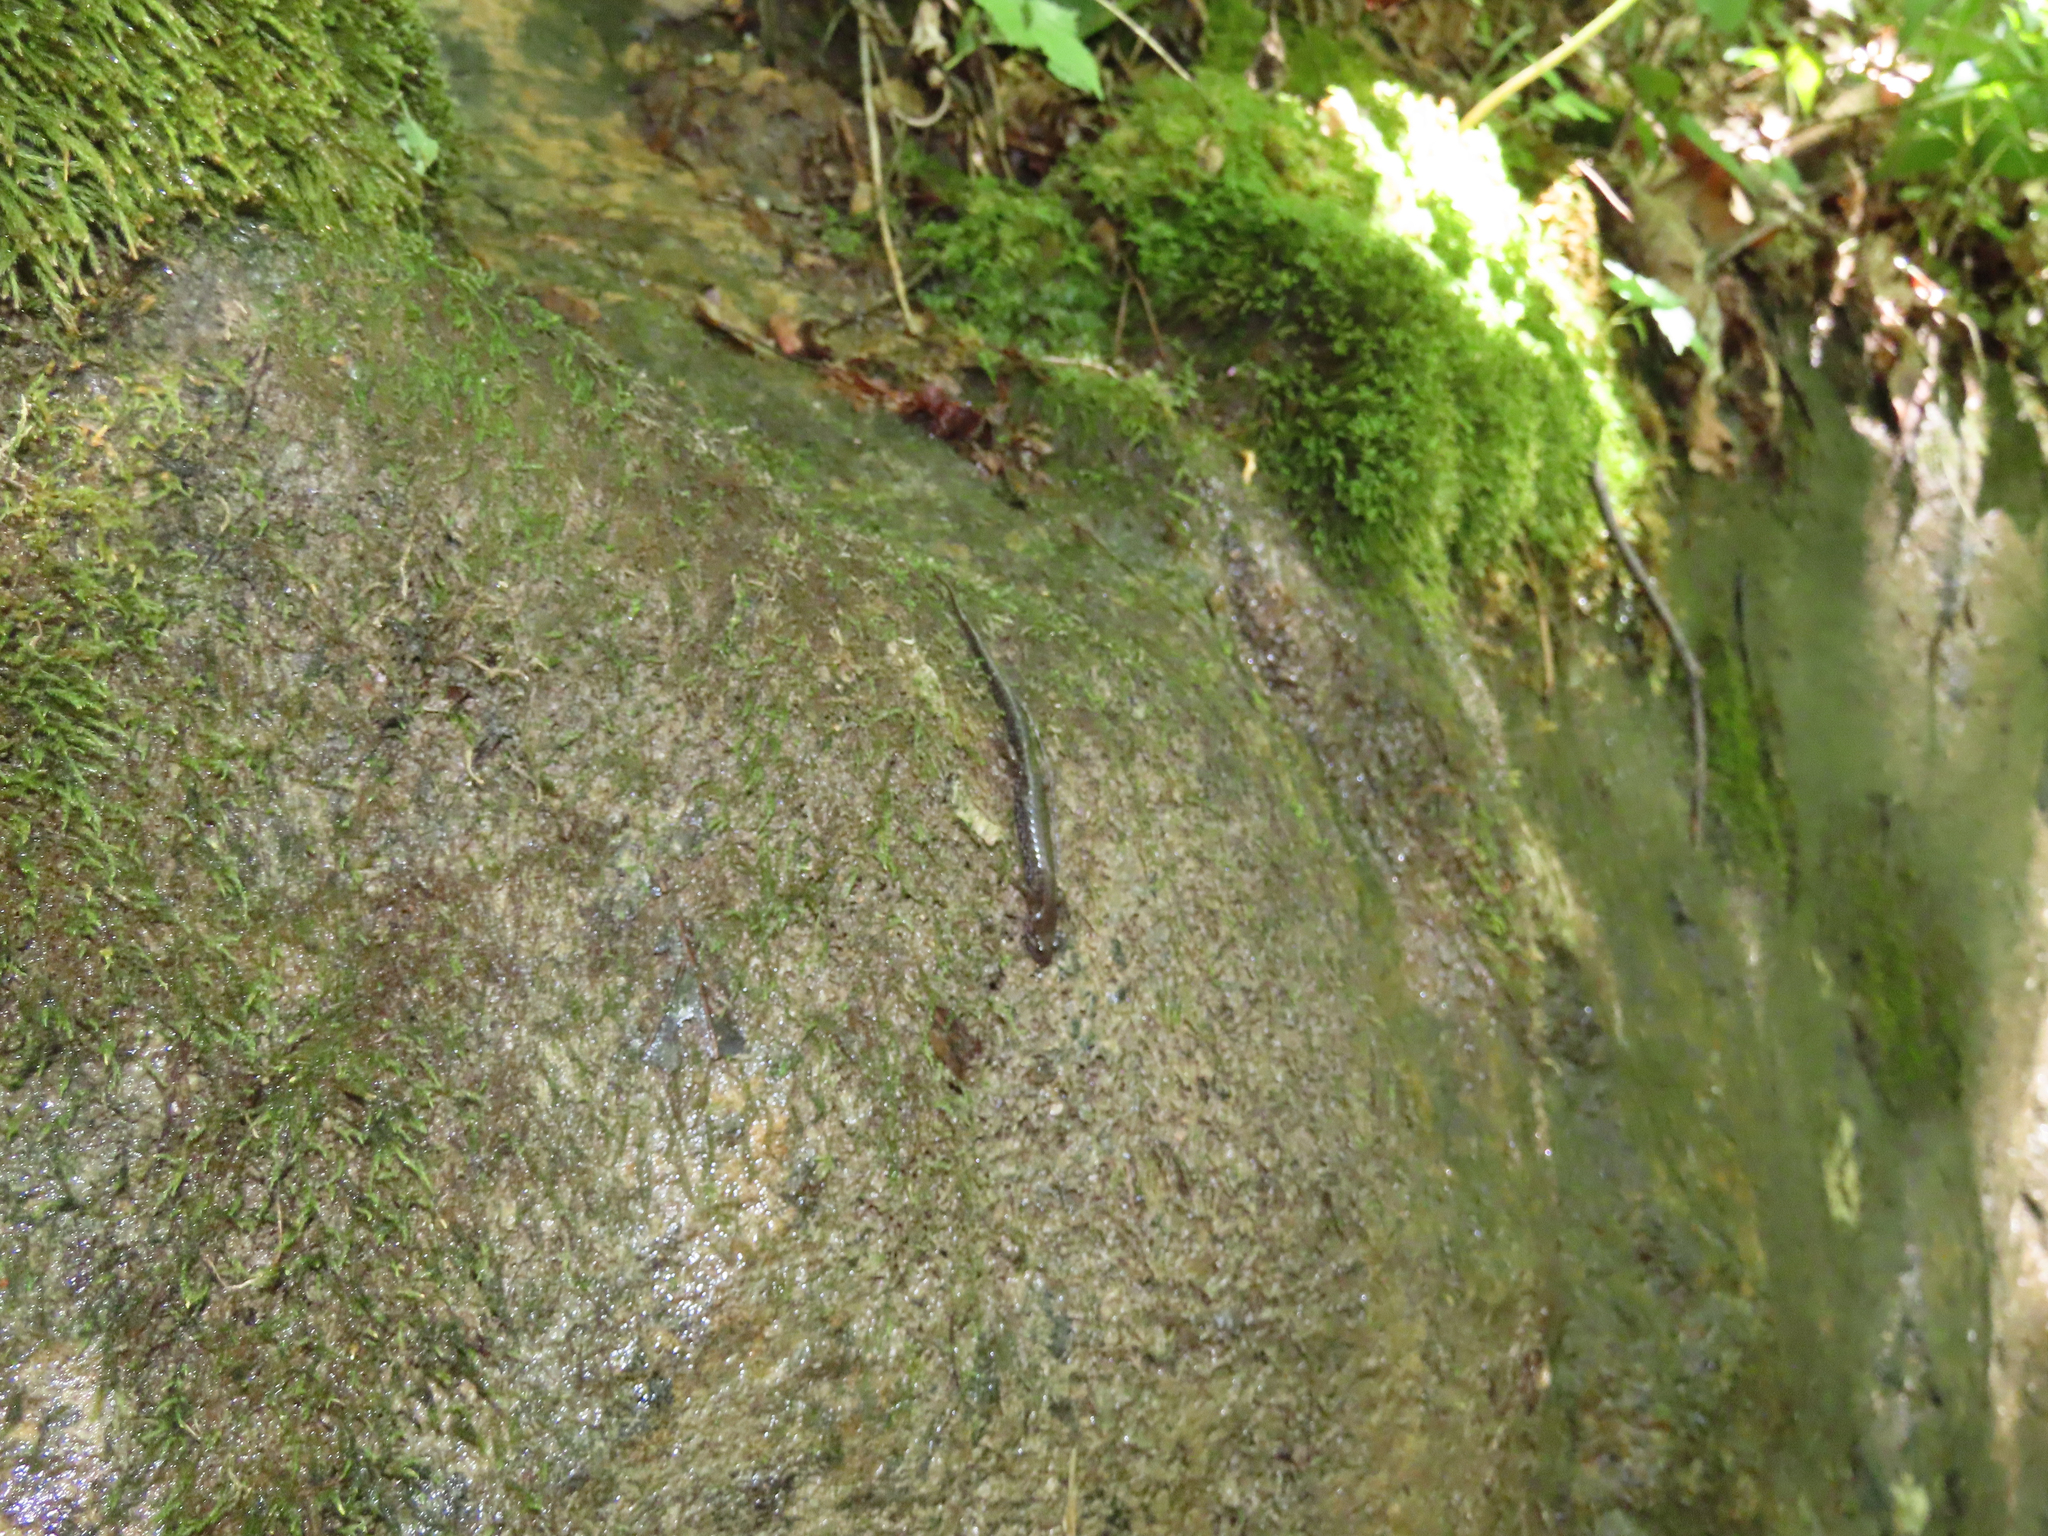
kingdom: Animalia
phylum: Chordata
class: Amphibia
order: Caudata
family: Plethodontidae
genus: Desmognathus
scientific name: Desmognathus ochrophaeus
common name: Allegheny mountain dusky salamander
